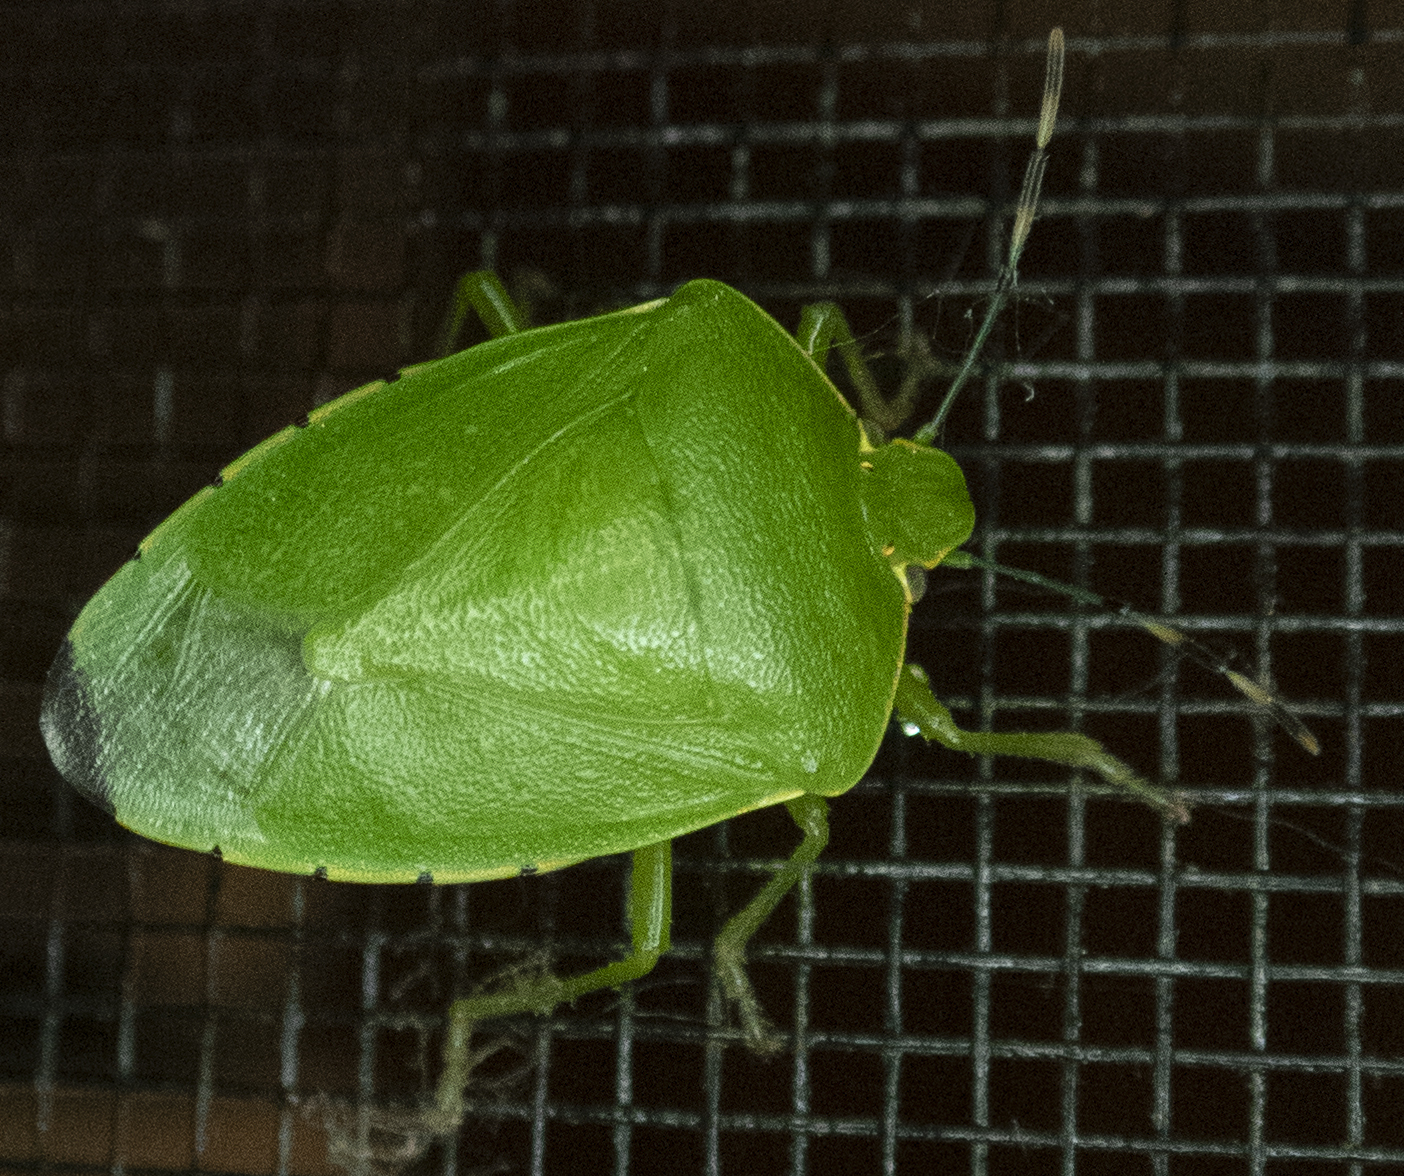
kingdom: Animalia
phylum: Arthropoda
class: Insecta
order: Hemiptera
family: Pentatomidae
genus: Chinavia
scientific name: Chinavia hilaris
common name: Green stink bug
